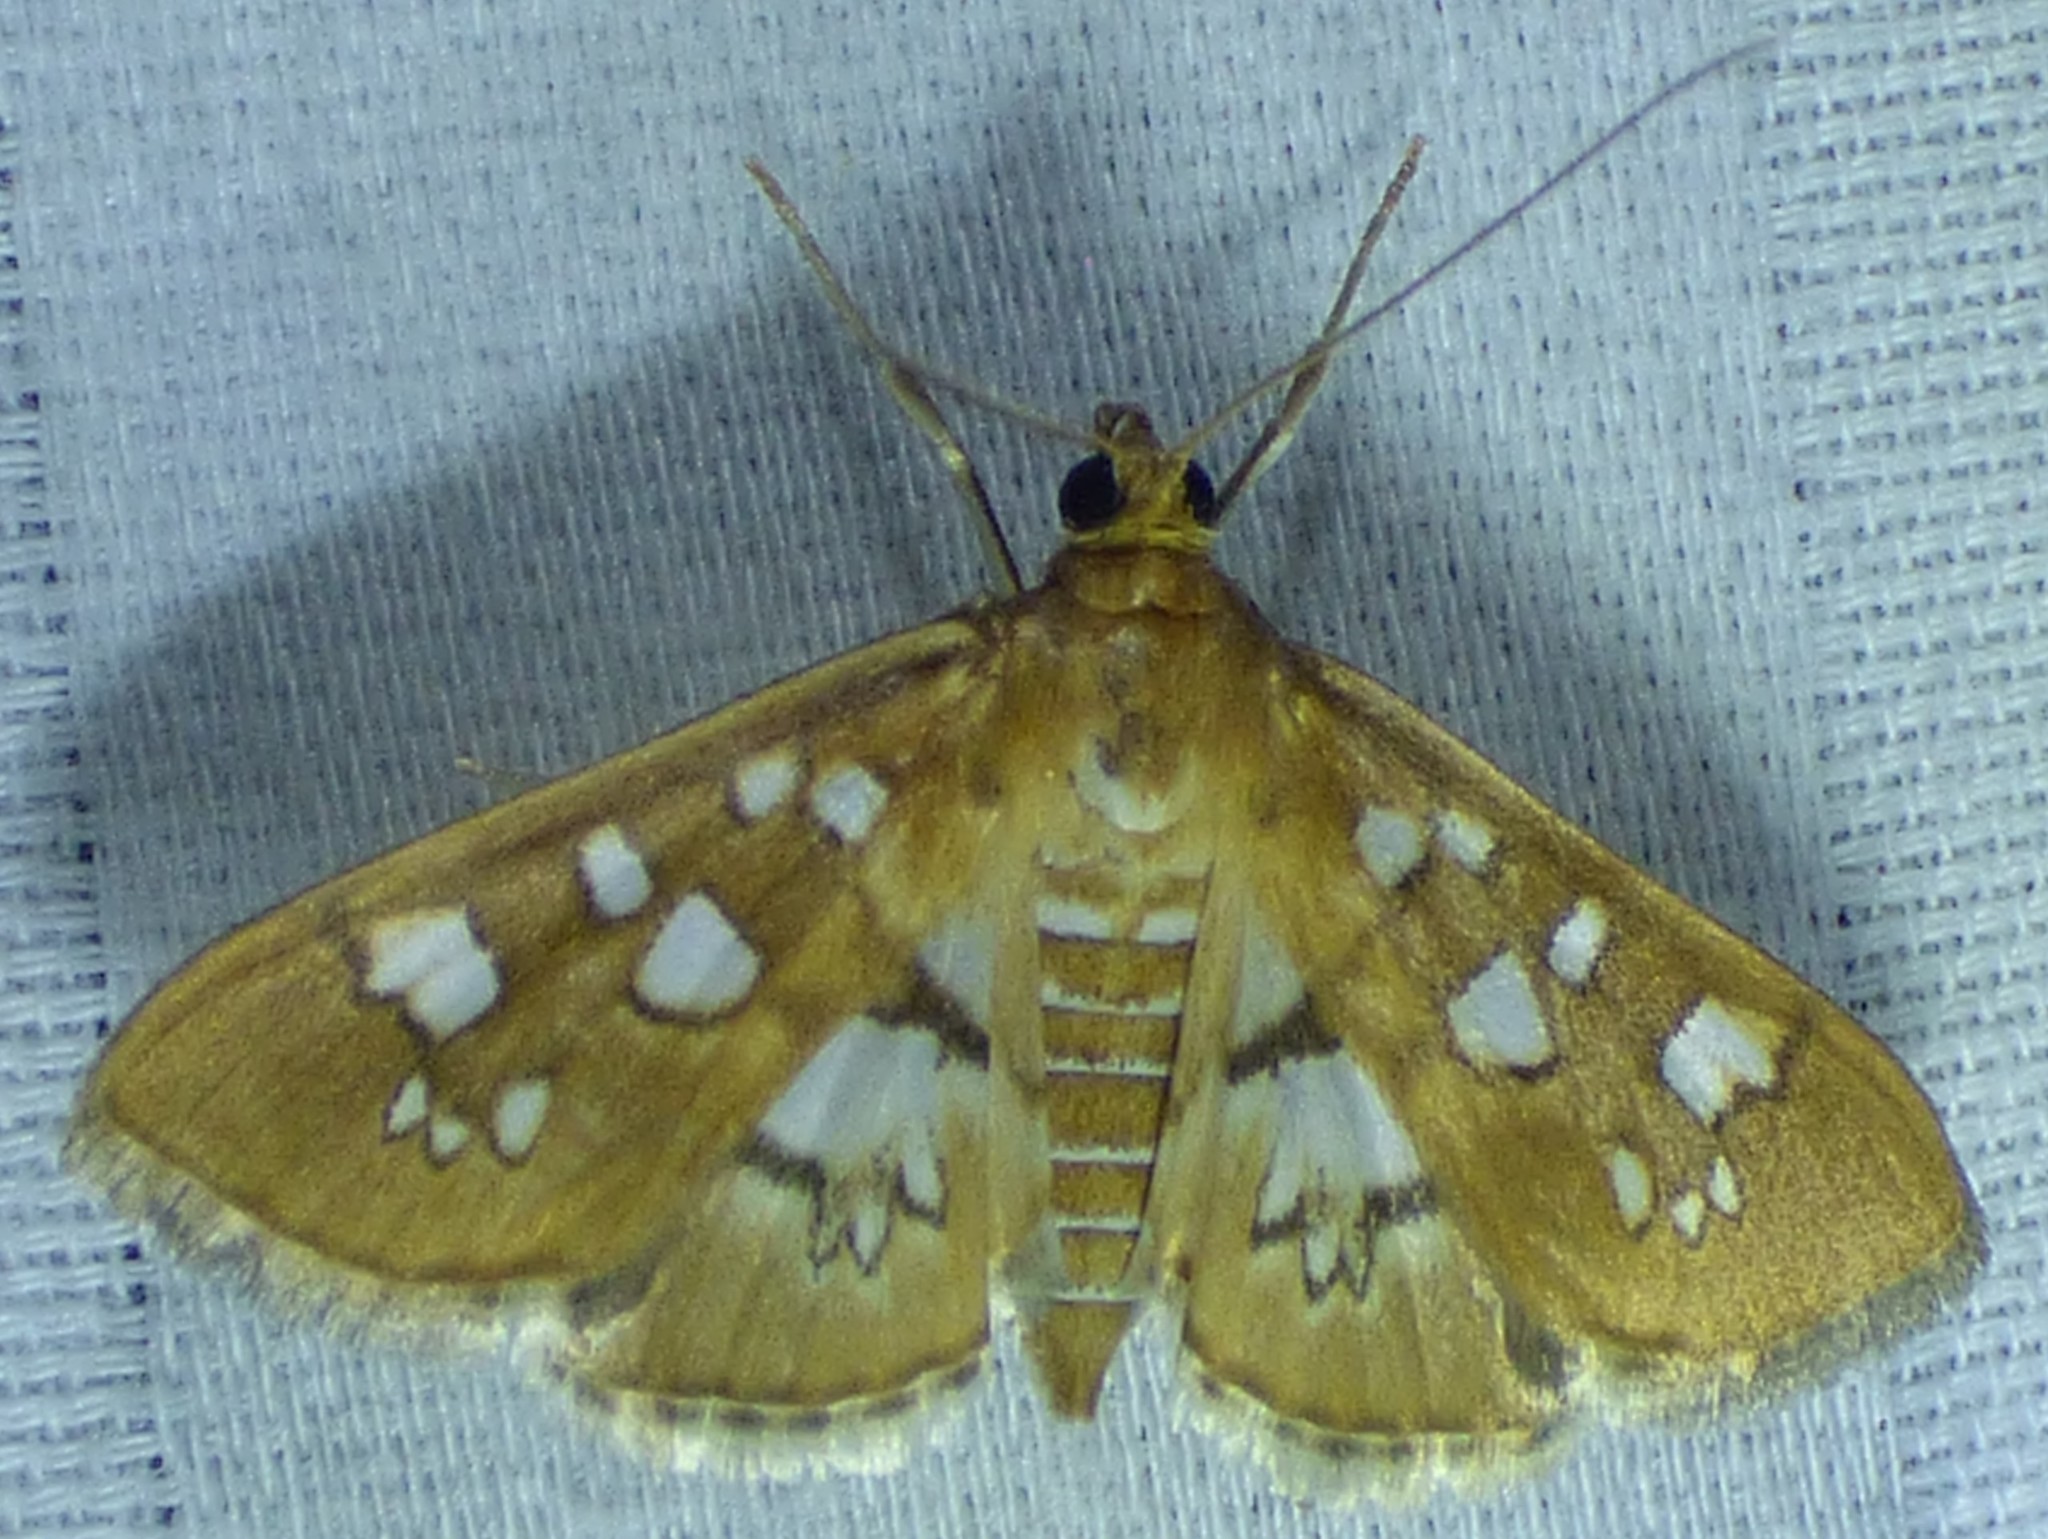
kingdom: Animalia
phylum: Arthropoda
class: Insecta
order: Lepidoptera
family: Crambidae
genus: Samea
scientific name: Samea baccatalis
